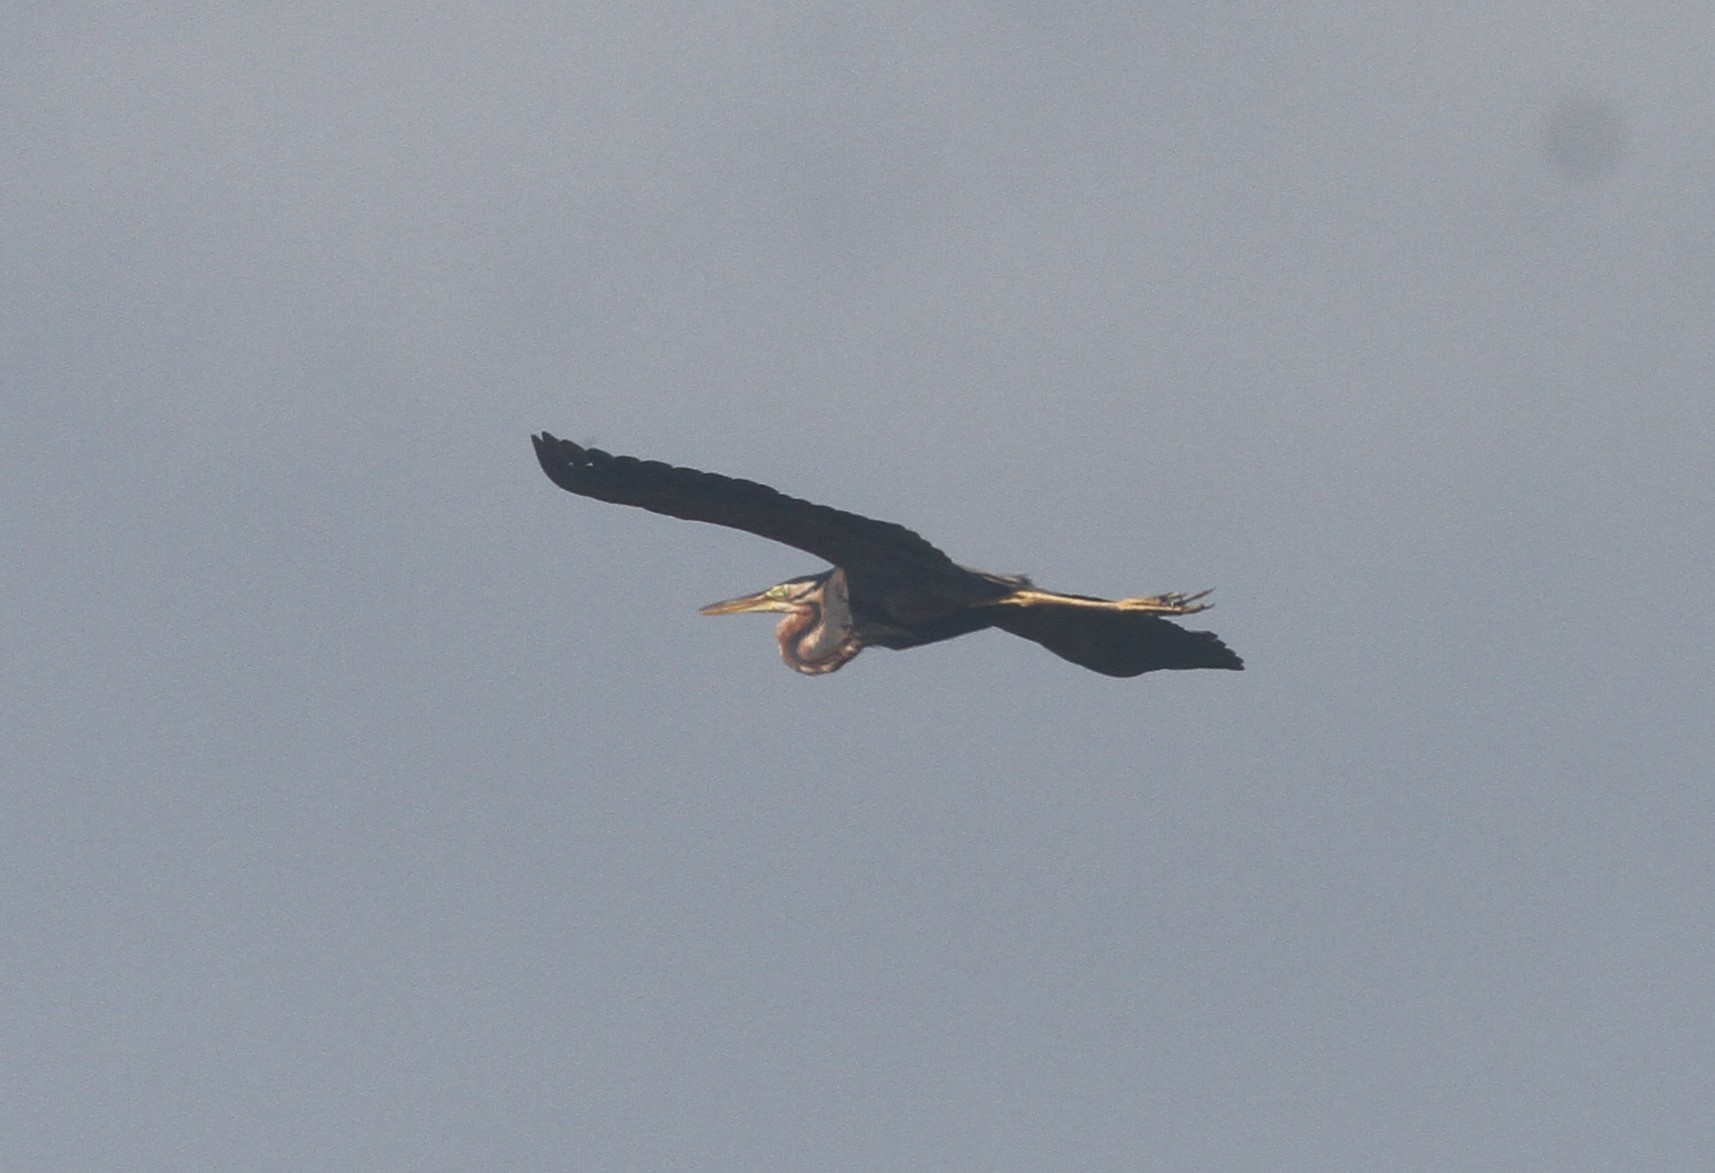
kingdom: Animalia
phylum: Chordata
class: Aves
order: Pelecaniformes
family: Ardeidae
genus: Ardea
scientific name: Ardea purpurea
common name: Purple heron
